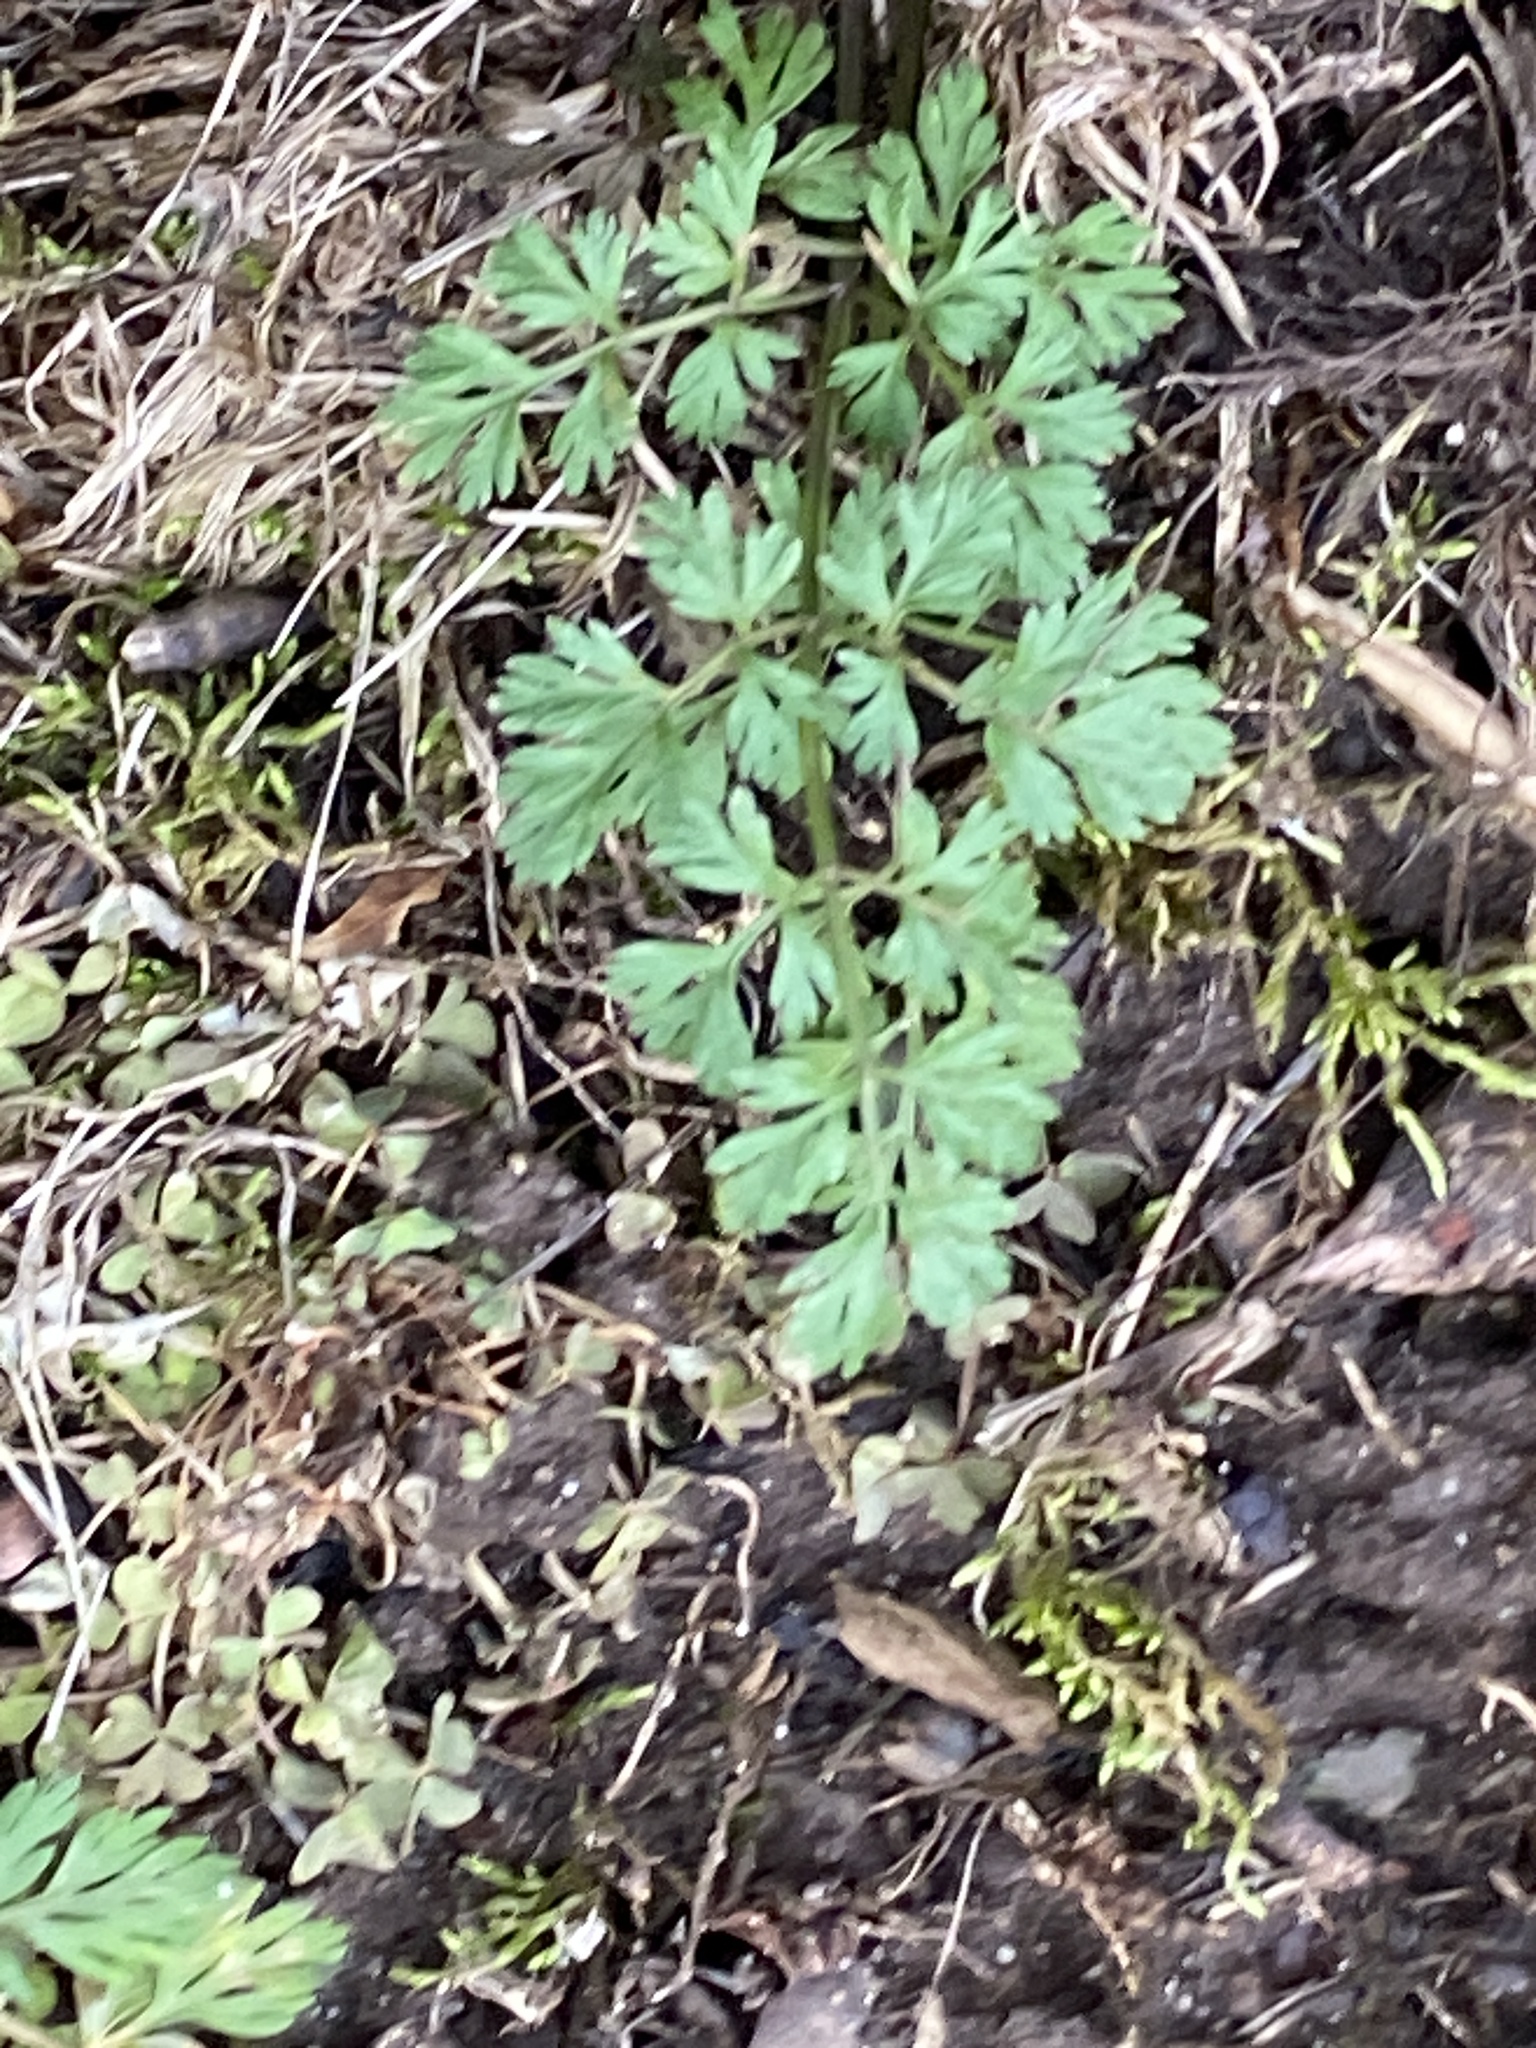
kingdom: Plantae
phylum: Tracheophyta
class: Magnoliopsida
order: Apiales
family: Apiaceae
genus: Daucus
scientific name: Daucus carota
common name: Wild carrot
